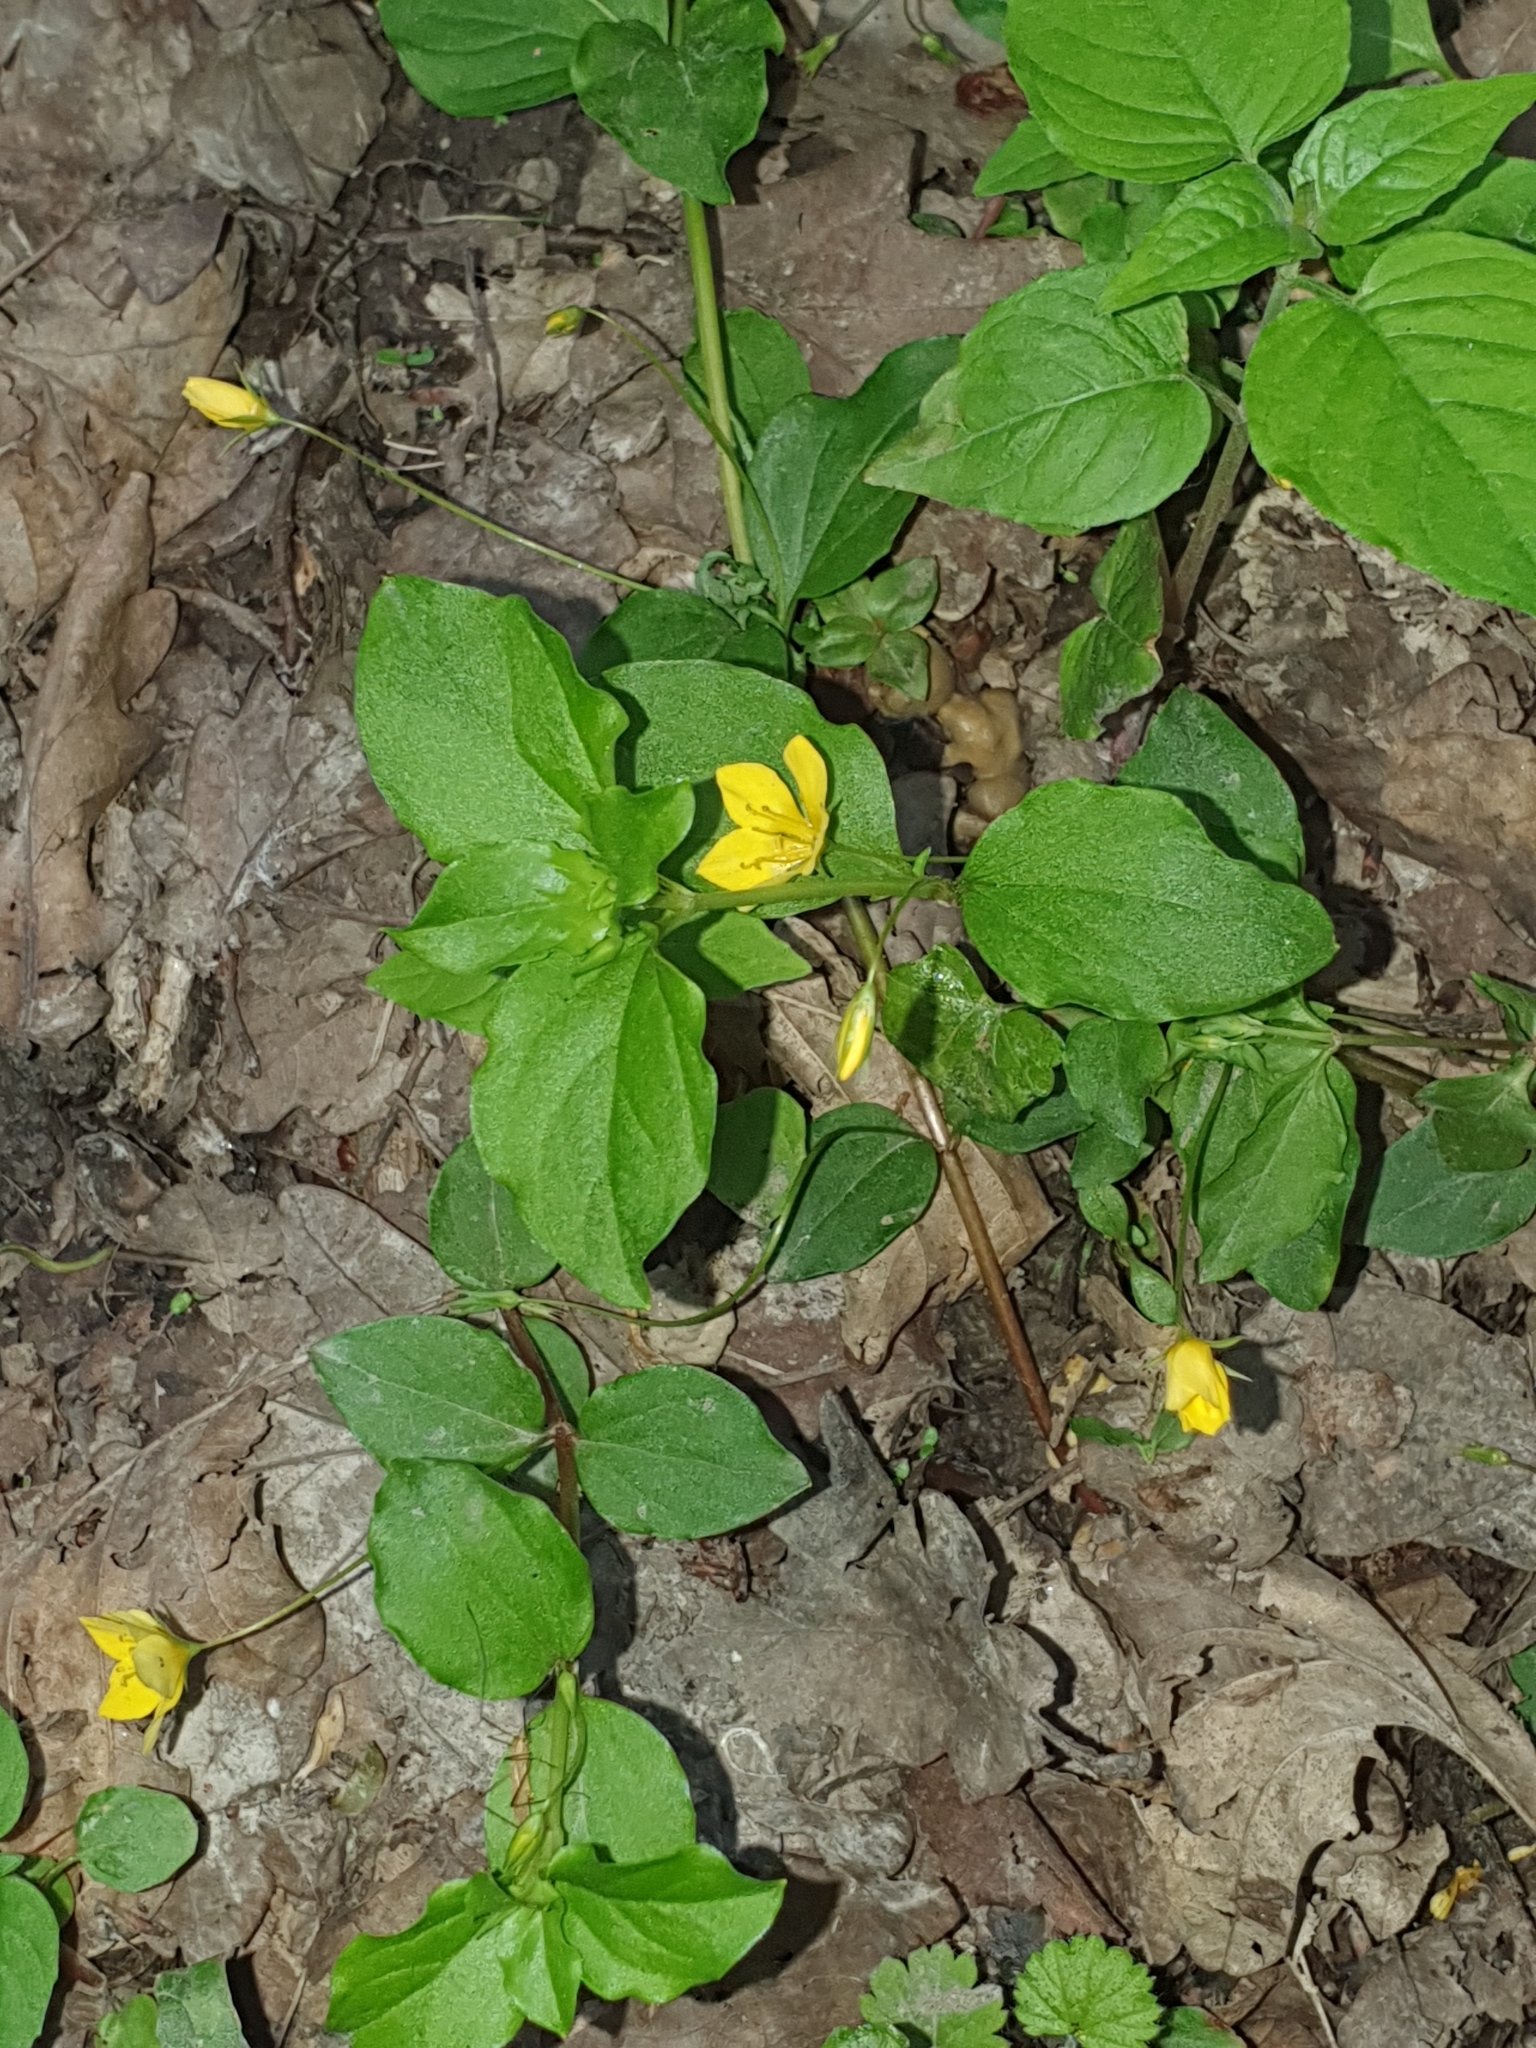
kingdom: Plantae
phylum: Tracheophyta
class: Magnoliopsida
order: Ericales
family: Primulaceae
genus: Lysimachia
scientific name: Lysimachia nemorum
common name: Yellow pimpernel
